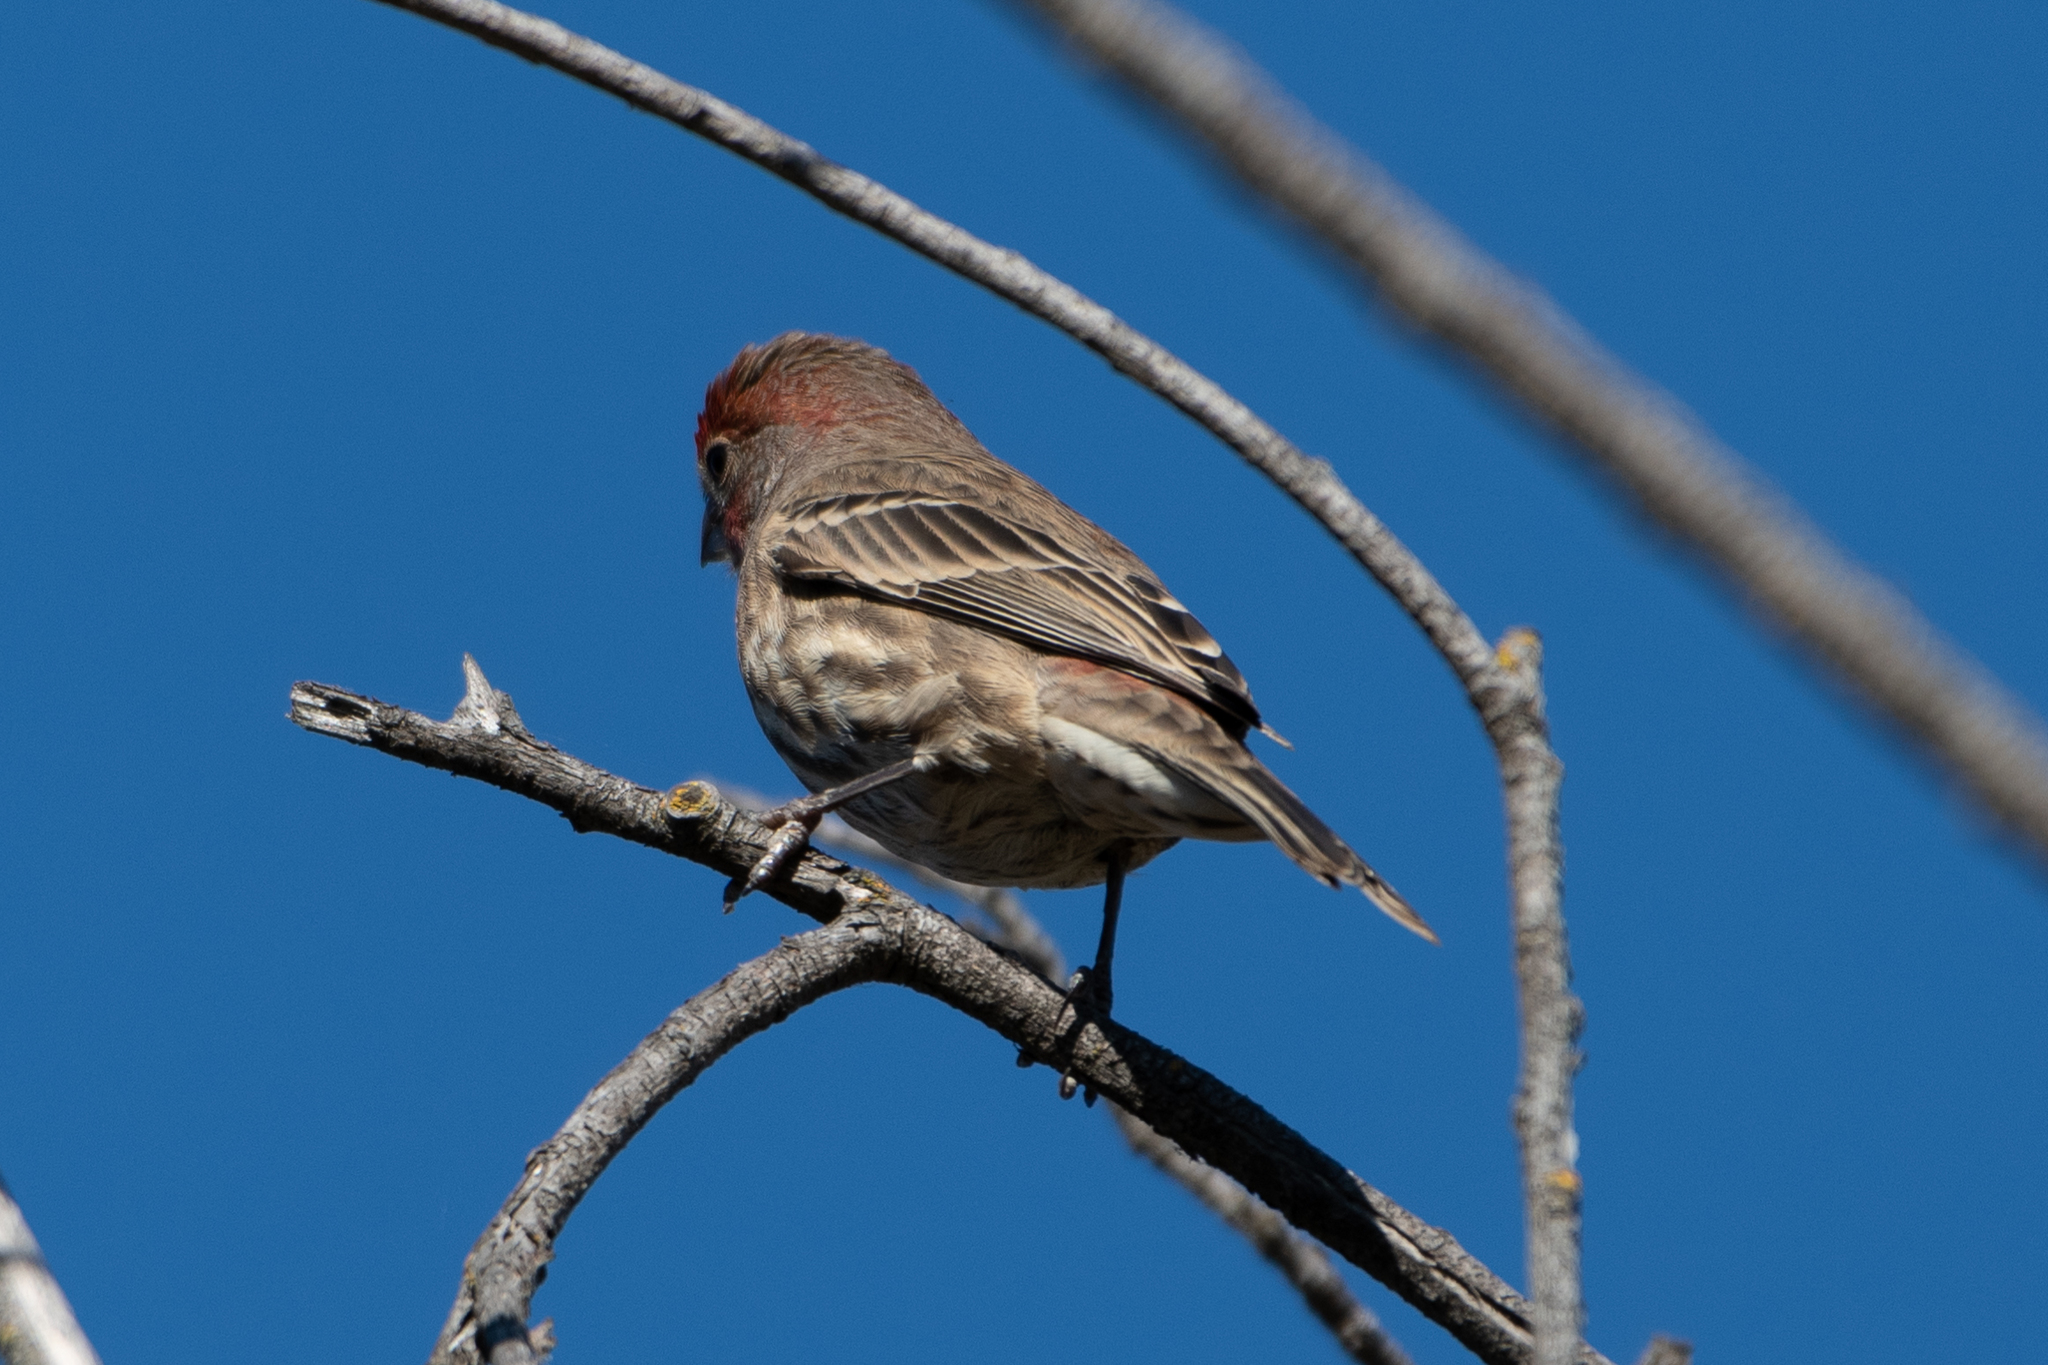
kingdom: Animalia
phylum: Chordata
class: Aves
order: Passeriformes
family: Fringillidae
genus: Haemorhous
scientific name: Haemorhous mexicanus
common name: House finch
